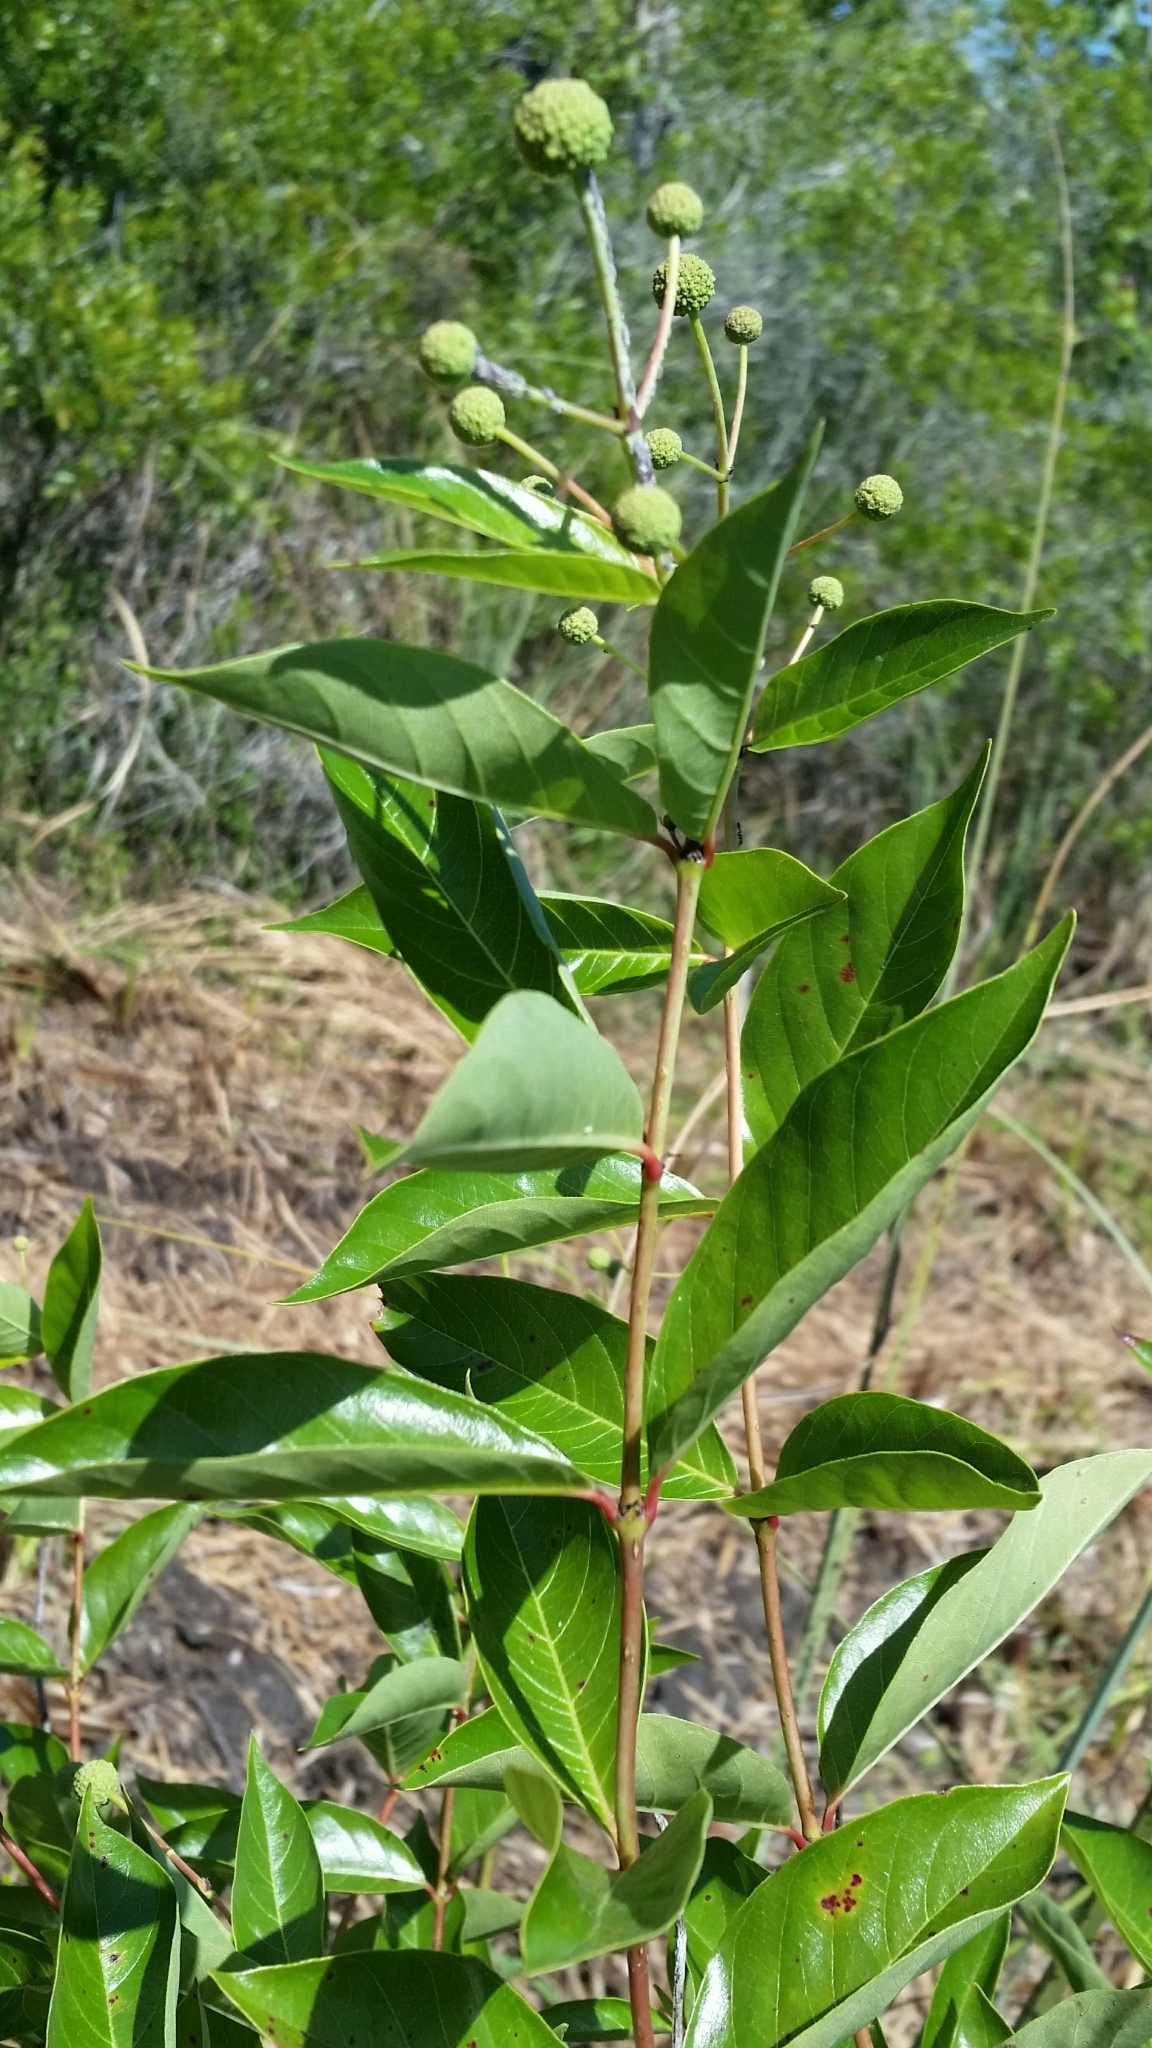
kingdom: Plantae
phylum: Tracheophyta
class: Magnoliopsida
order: Gentianales
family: Rubiaceae
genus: Cephalanthus
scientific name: Cephalanthus occidentalis
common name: Button-willow
